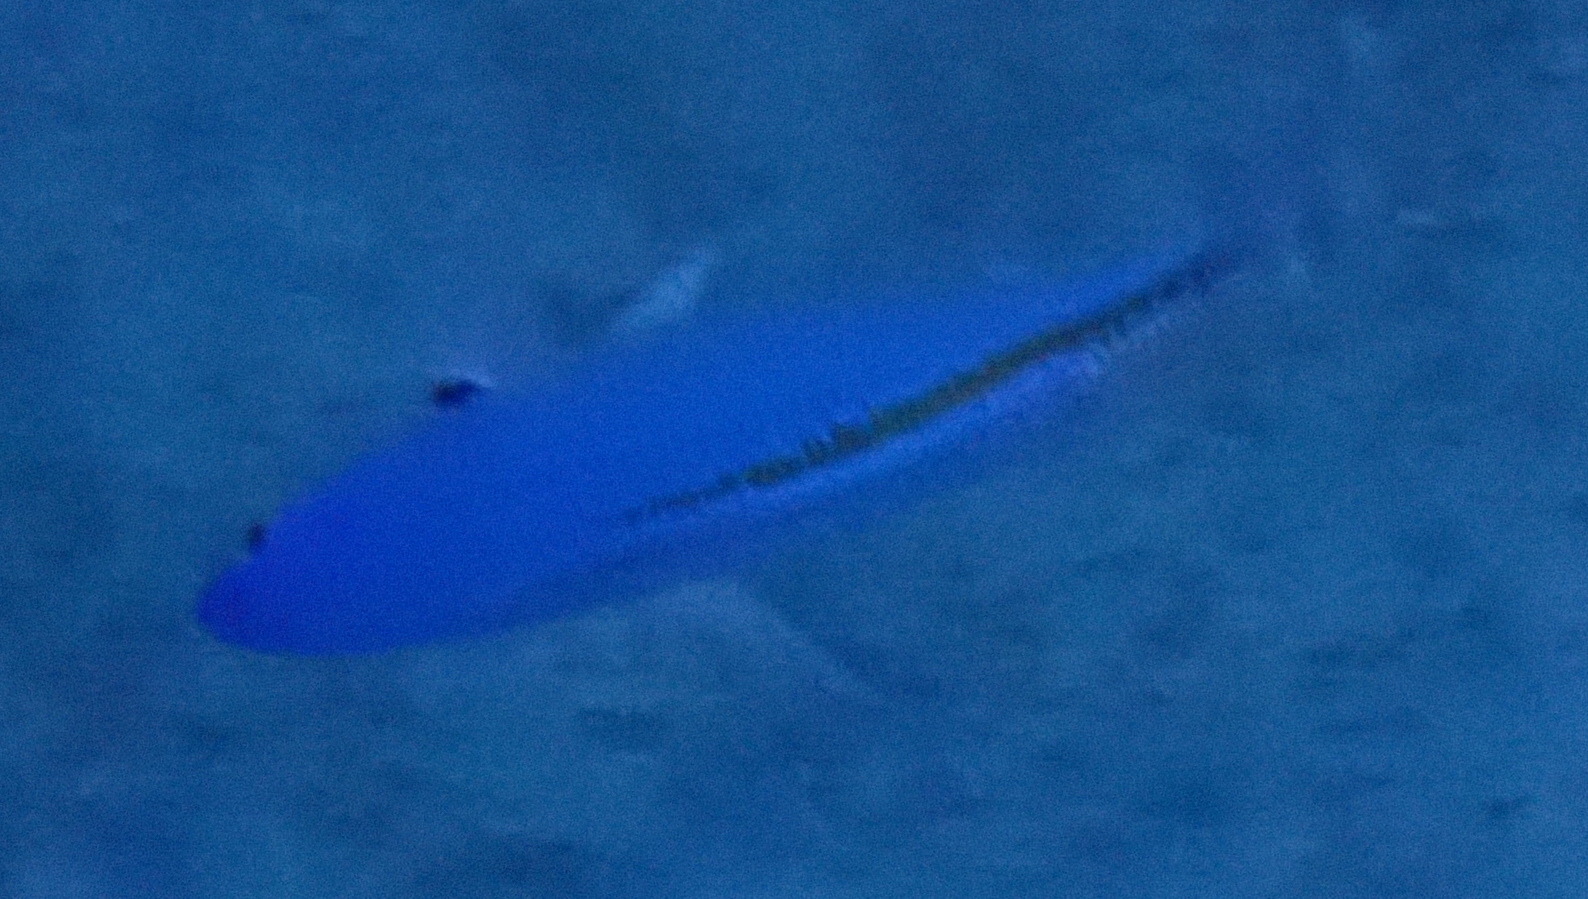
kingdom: Animalia
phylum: Chordata
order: Perciformes
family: Caesionidae
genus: Caesio
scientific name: Caesio suevica
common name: Suez fusilier
